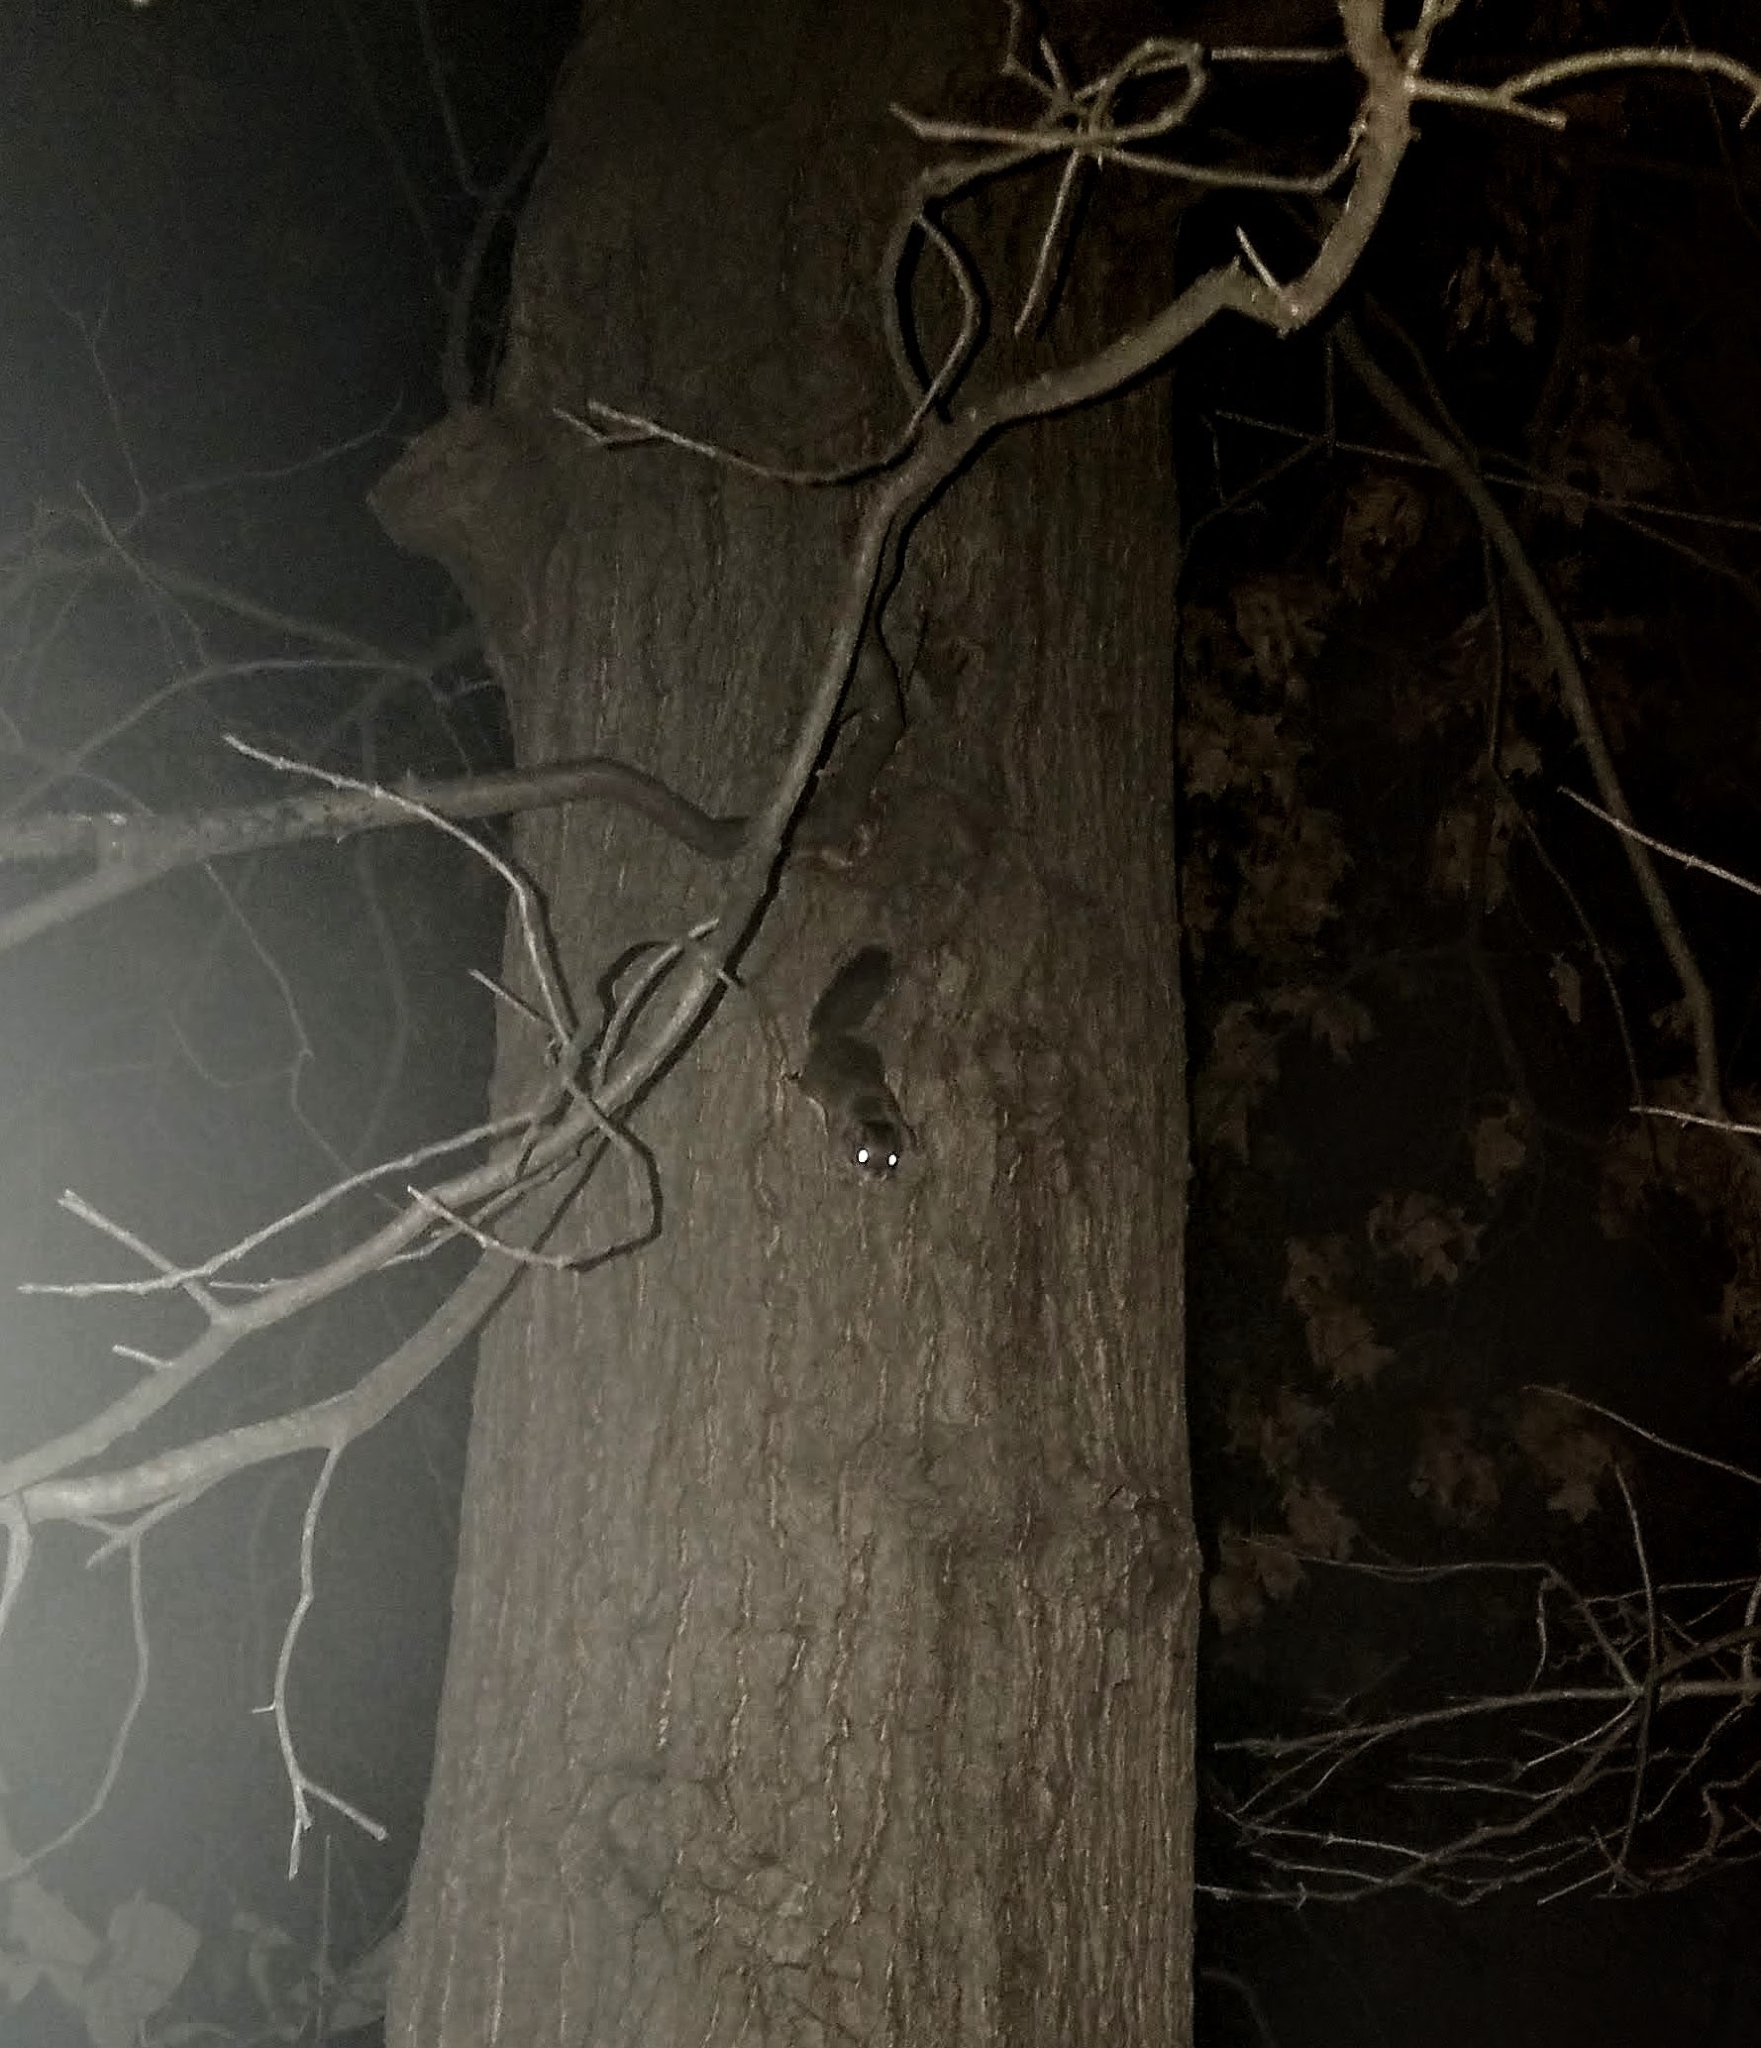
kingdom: Animalia
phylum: Chordata
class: Mammalia
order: Rodentia
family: Sciuridae
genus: Glaucomys
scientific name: Glaucomys volans
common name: Southern flying squirrel
